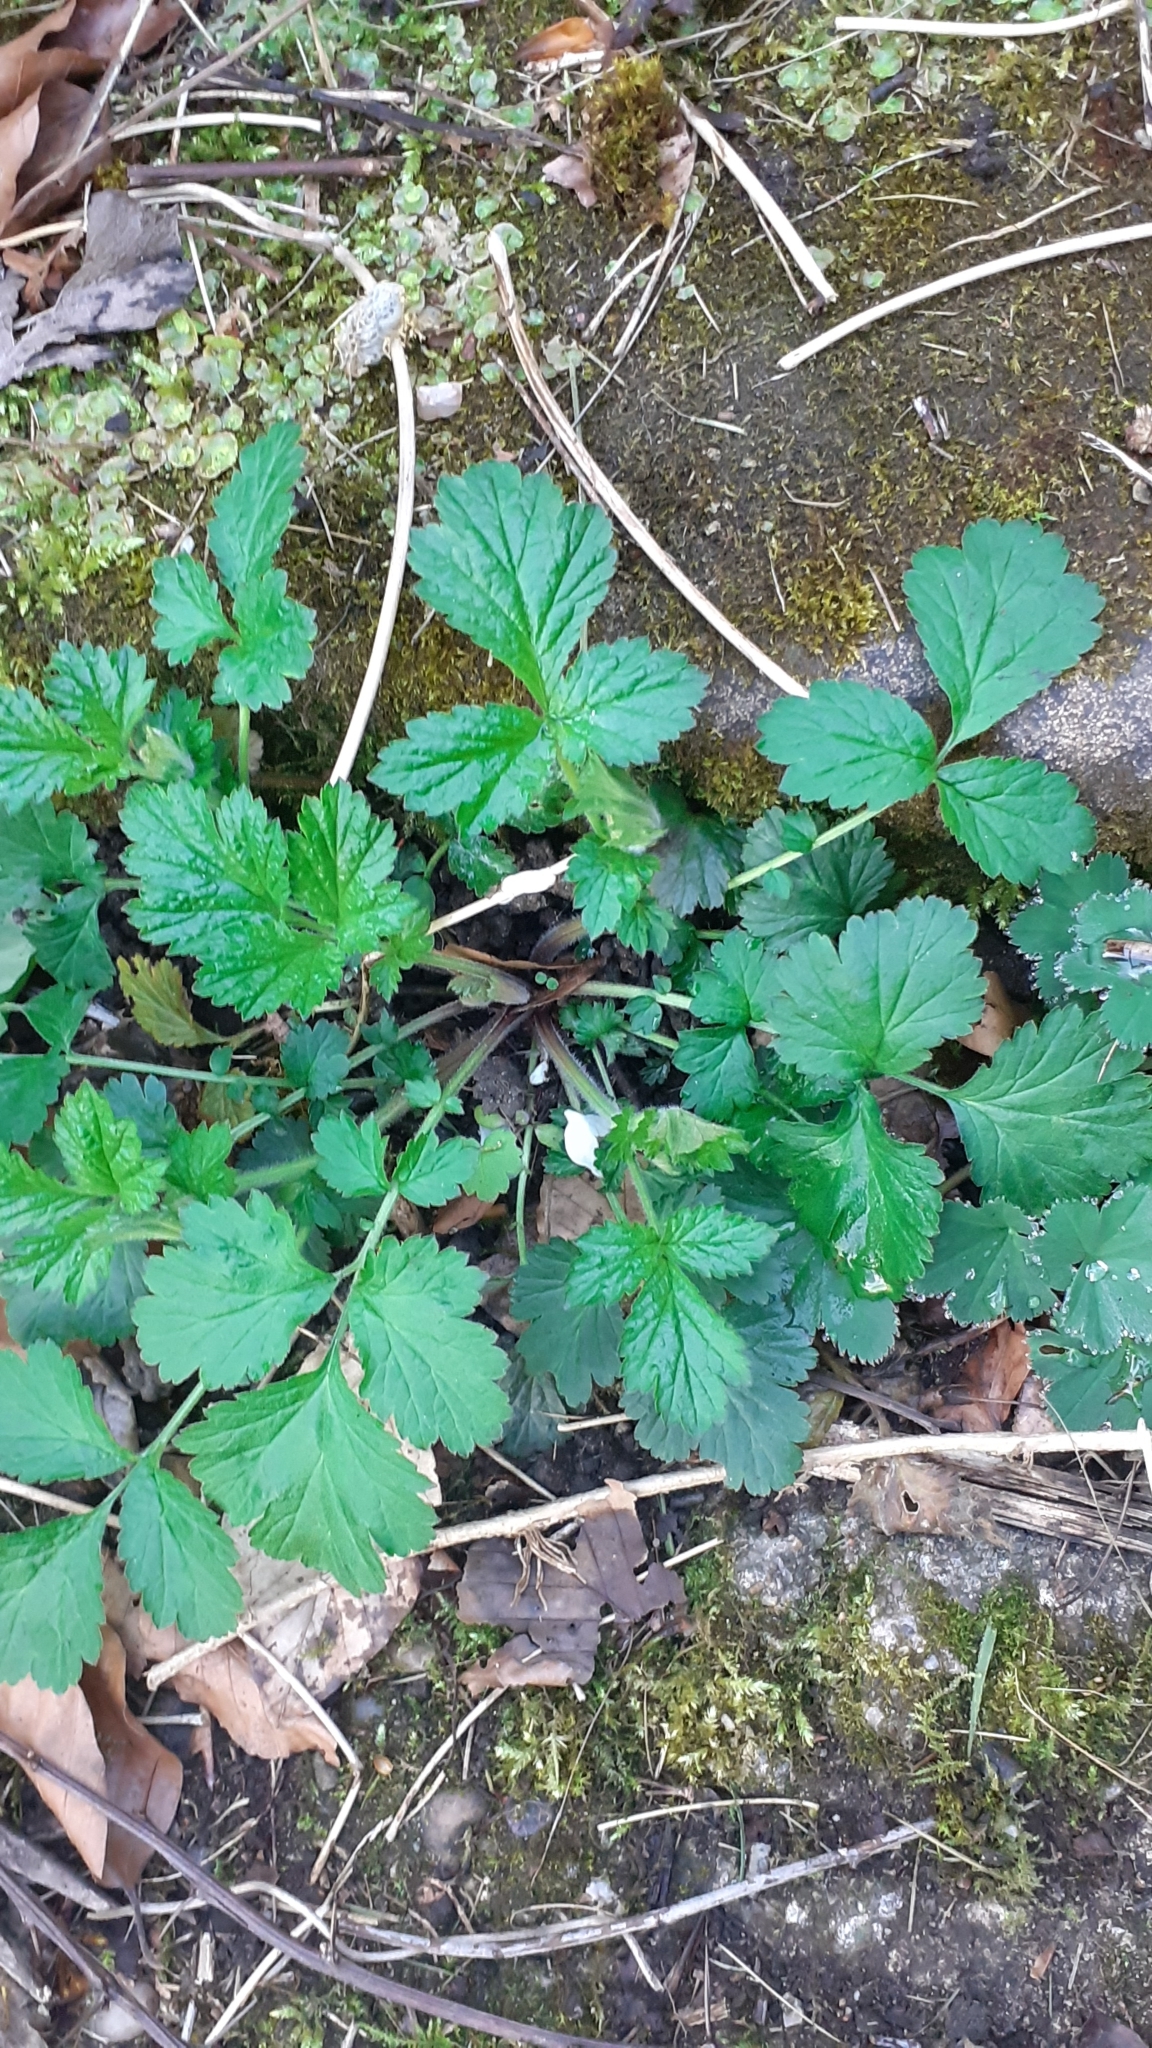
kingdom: Plantae
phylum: Tracheophyta
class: Magnoliopsida
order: Rosales
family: Rosaceae
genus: Geum
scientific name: Geum urbanum
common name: Wood avens
